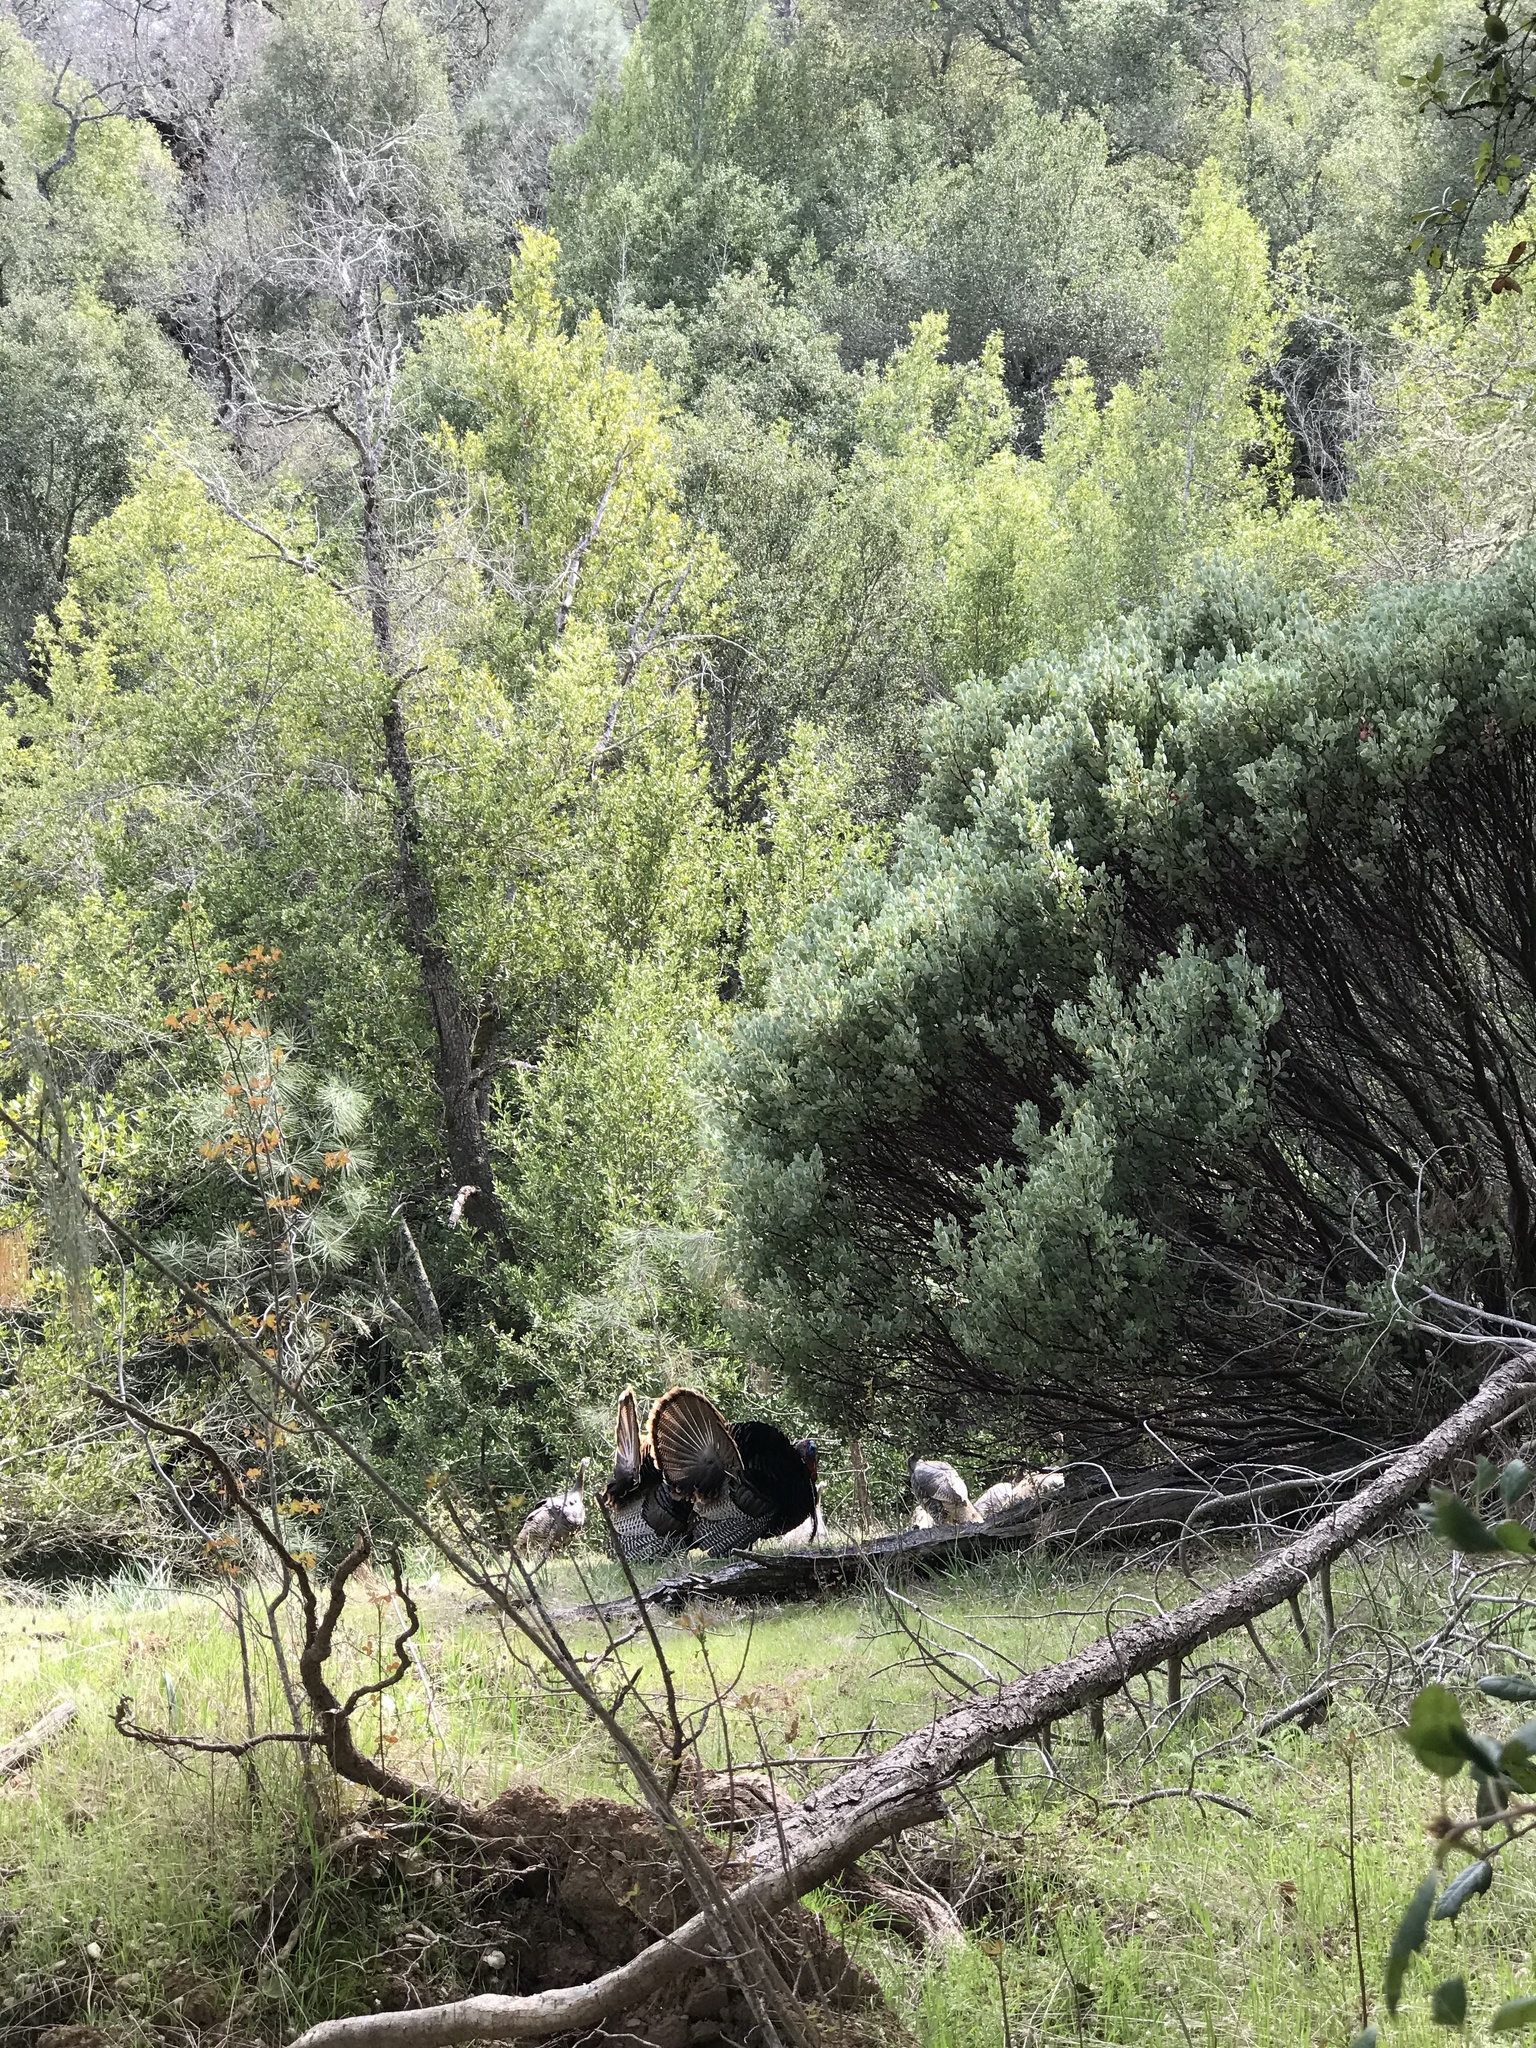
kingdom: Animalia
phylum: Chordata
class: Aves
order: Galliformes
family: Phasianidae
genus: Meleagris
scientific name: Meleagris gallopavo
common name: Wild turkey
